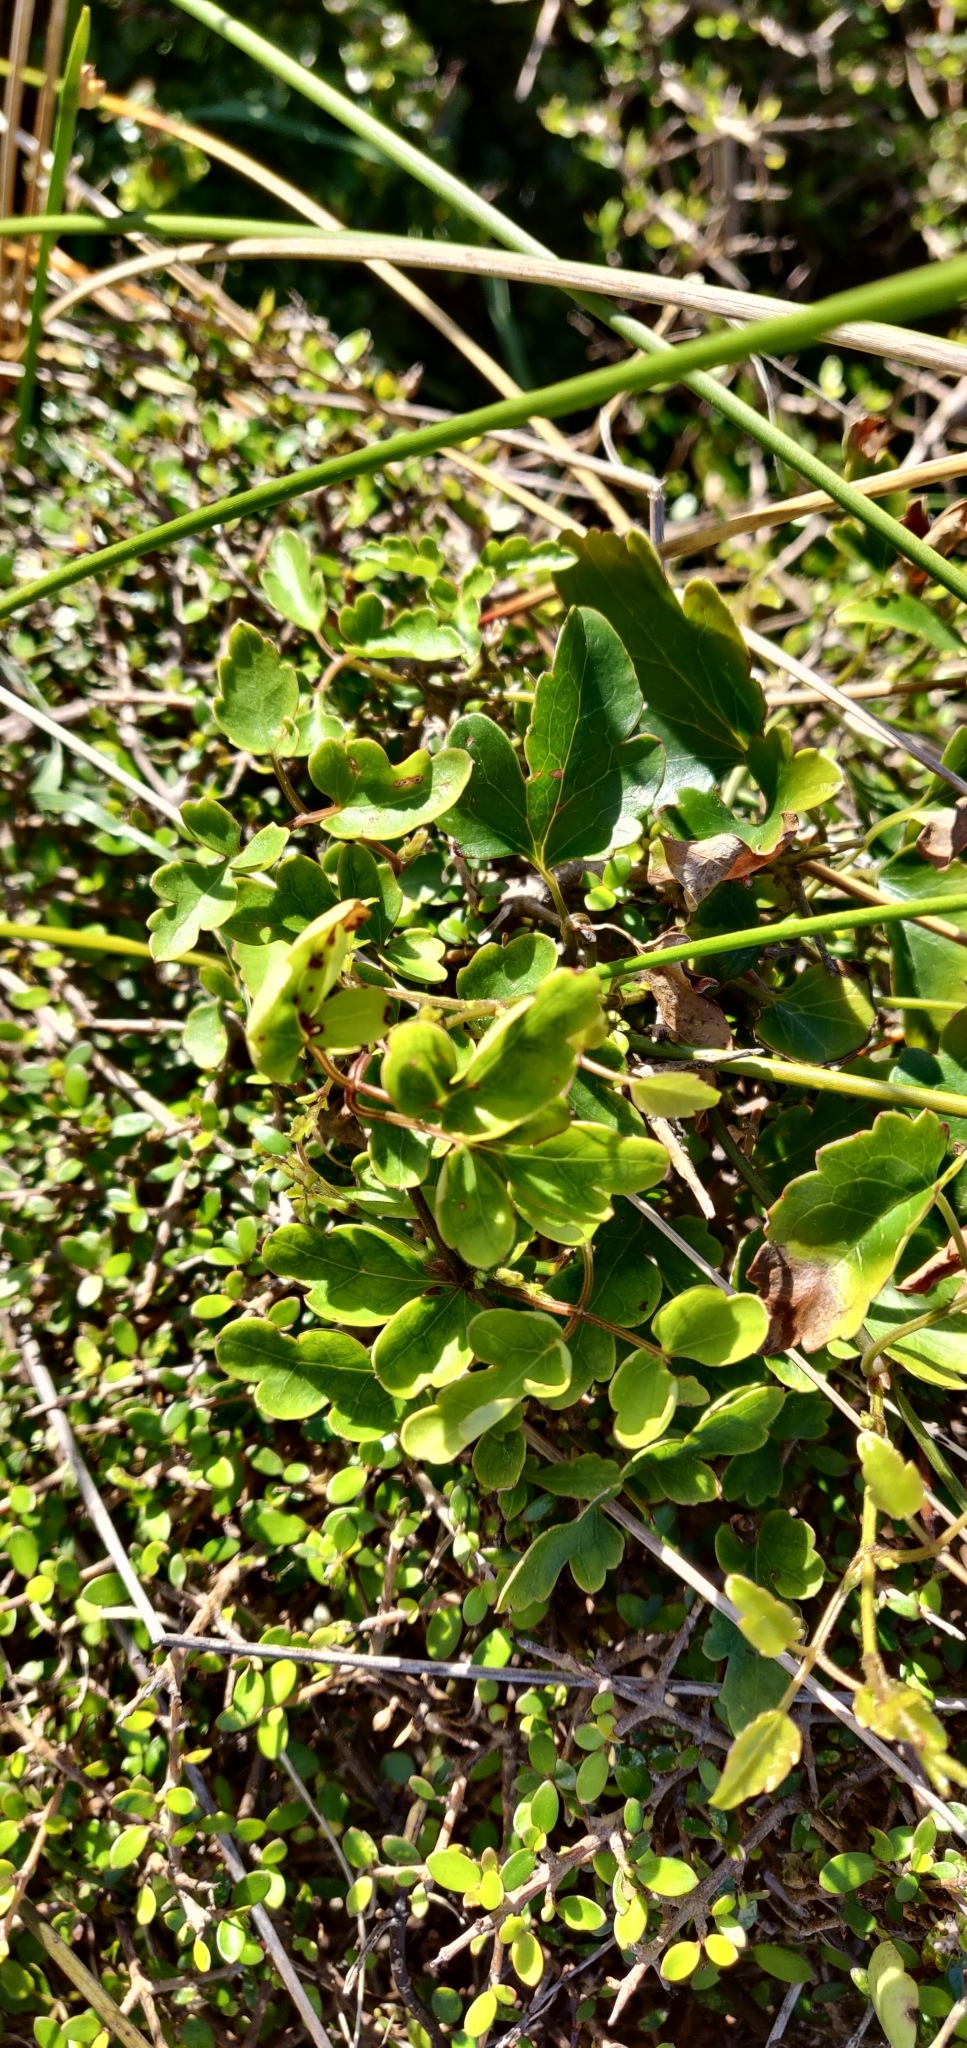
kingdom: Plantae
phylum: Tracheophyta
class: Magnoliopsida
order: Ranunculales
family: Ranunculaceae
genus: Clematis
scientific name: Clematis forsteri
